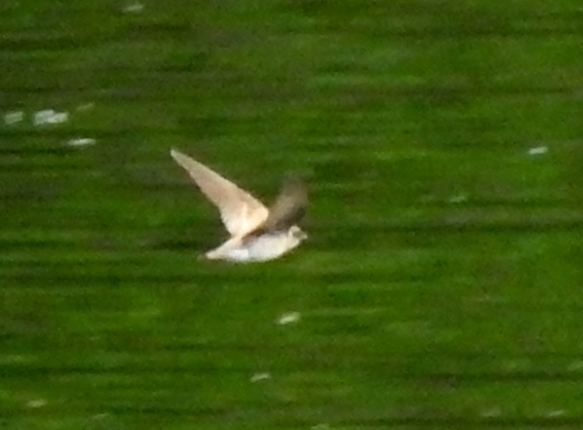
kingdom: Animalia
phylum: Chordata
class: Aves
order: Passeriformes
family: Hirundinidae
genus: Stelgidopteryx
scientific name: Stelgidopteryx serripennis
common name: Northern rough-winged swallow
